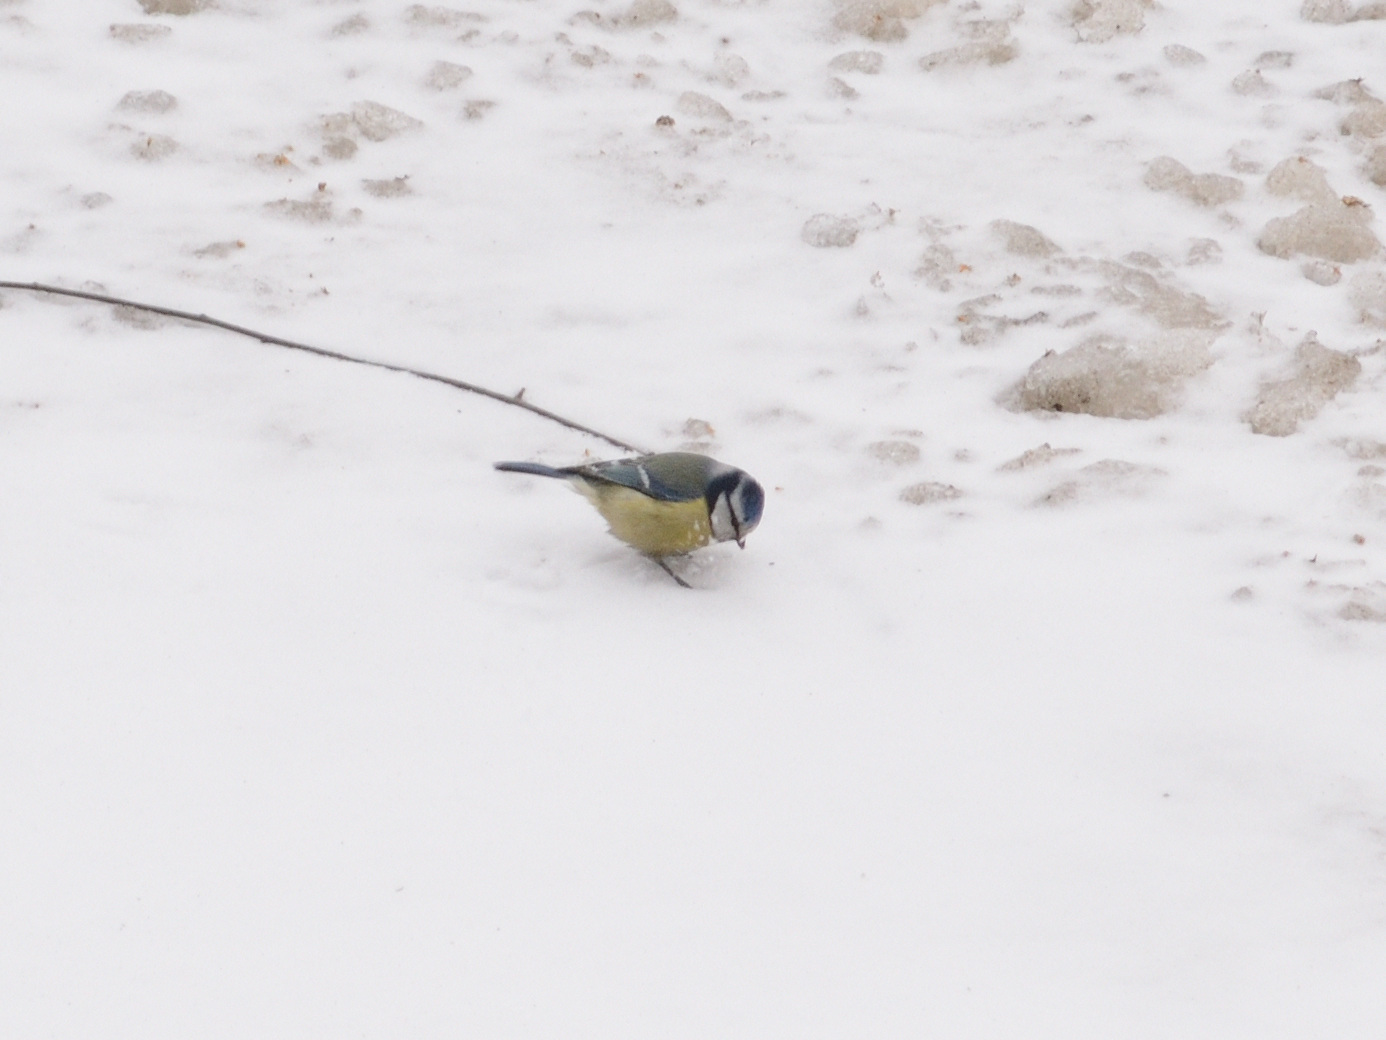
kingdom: Animalia
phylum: Chordata
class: Aves
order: Passeriformes
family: Paridae
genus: Cyanistes
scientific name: Cyanistes caeruleus
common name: Eurasian blue tit
